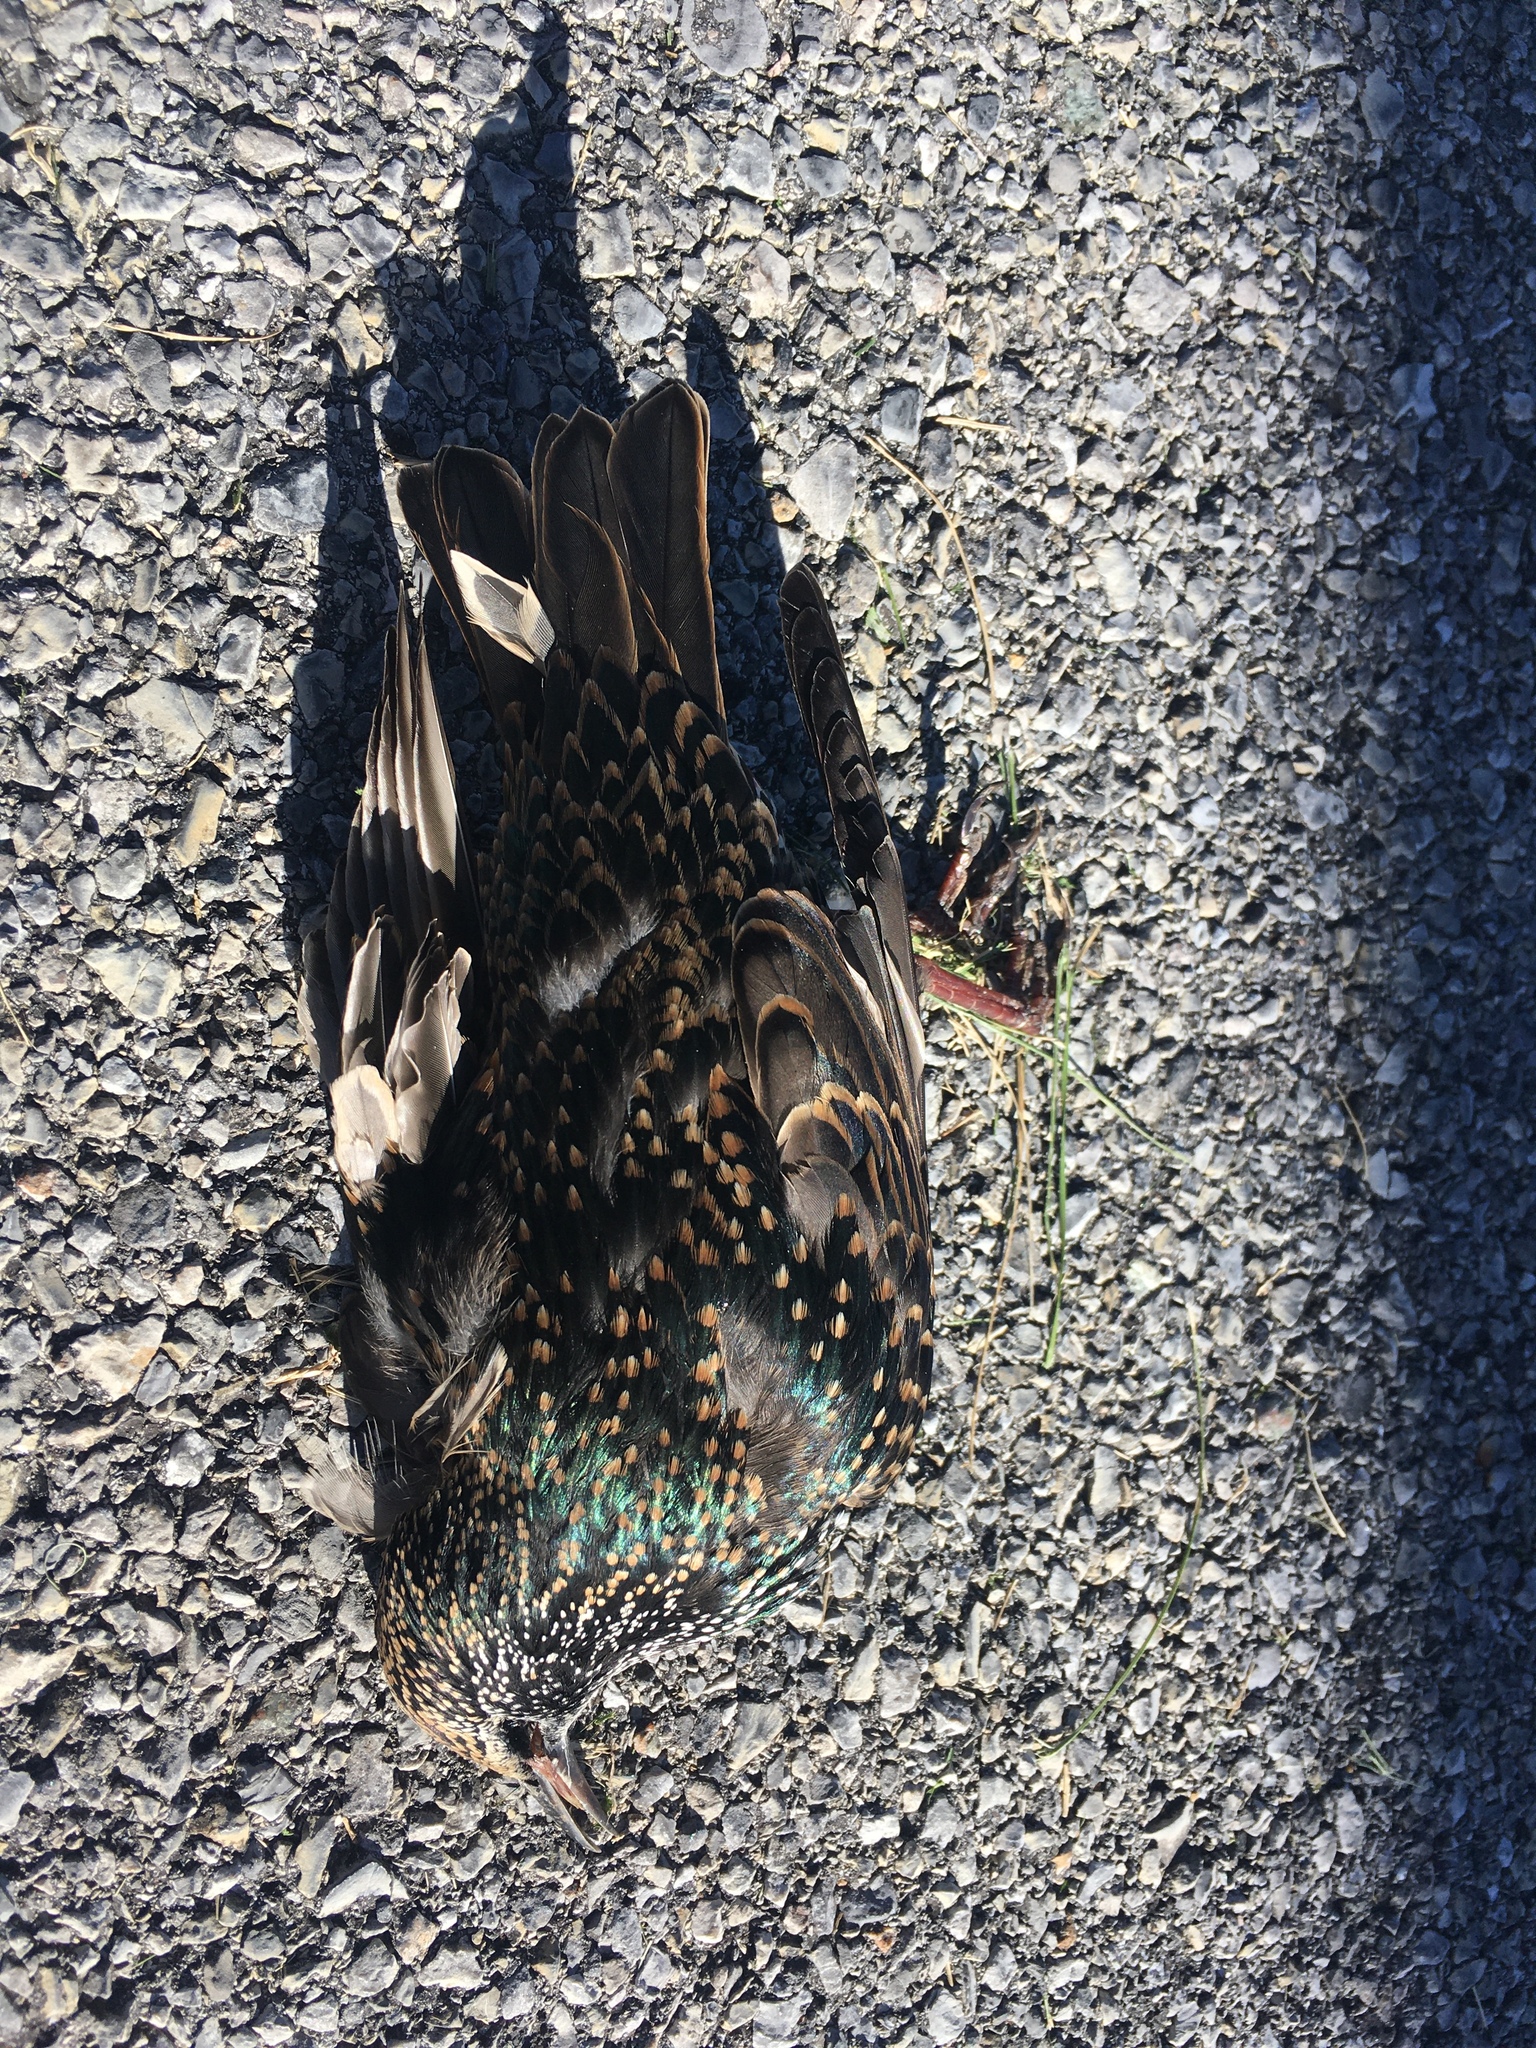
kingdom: Animalia
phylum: Chordata
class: Aves
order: Passeriformes
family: Sturnidae
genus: Sturnus
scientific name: Sturnus vulgaris
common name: Common starling
